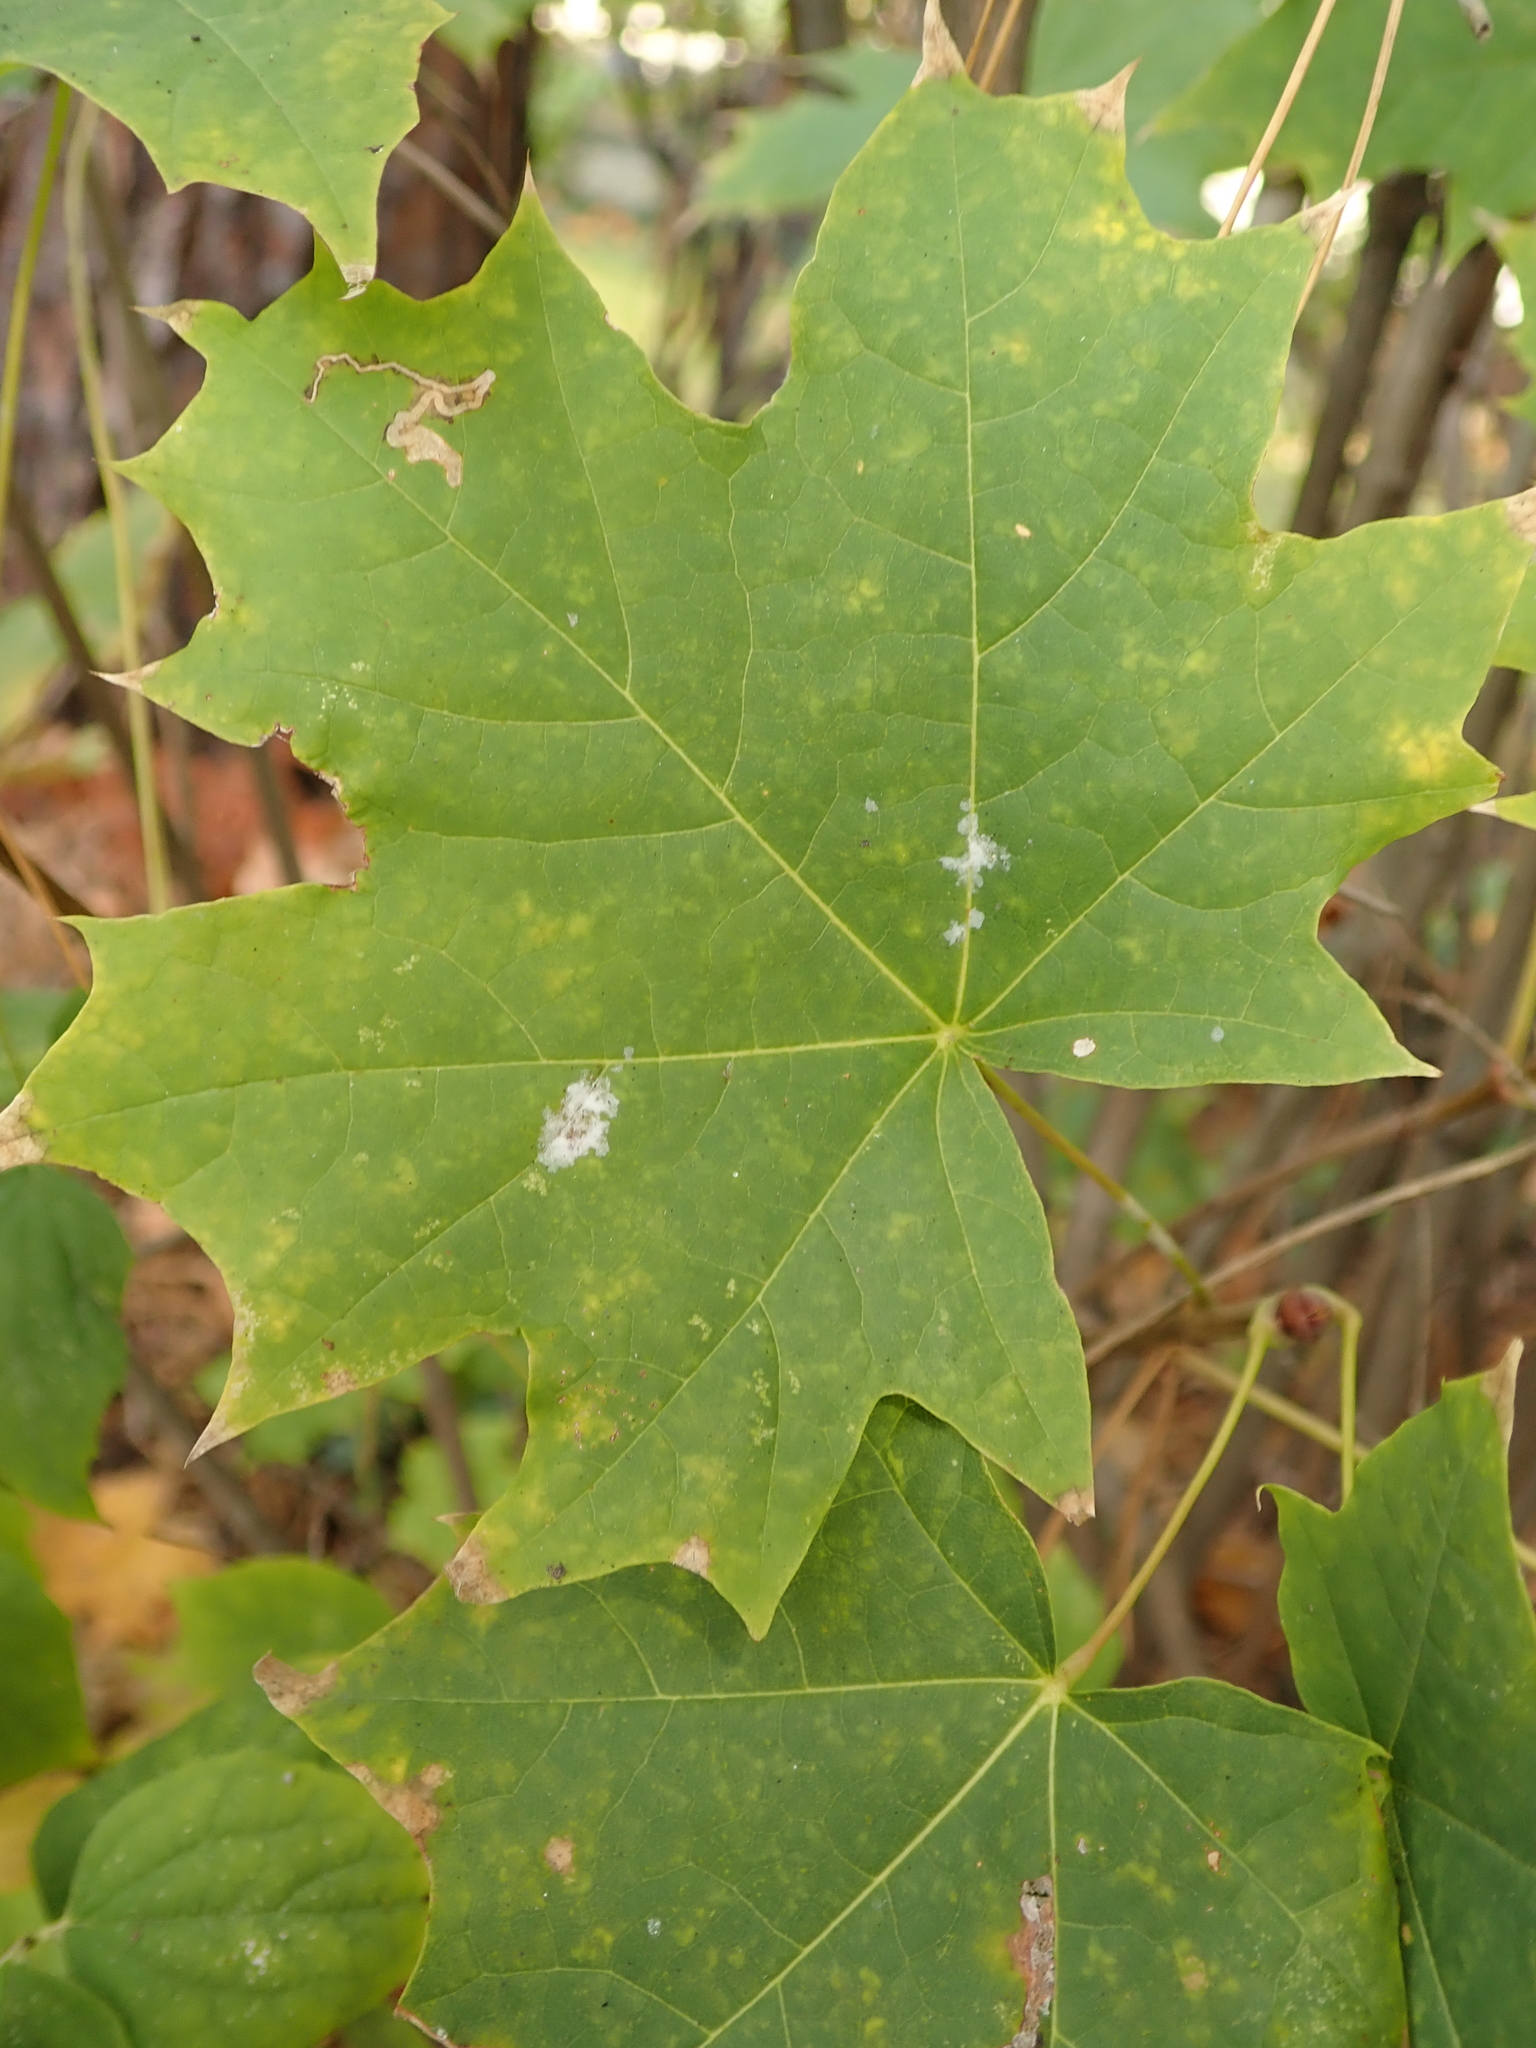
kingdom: Plantae
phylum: Tracheophyta
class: Magnoliopsida
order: Sapindales
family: Sapindaceae
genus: Acer
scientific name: Acer platanoides
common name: Norway maple
